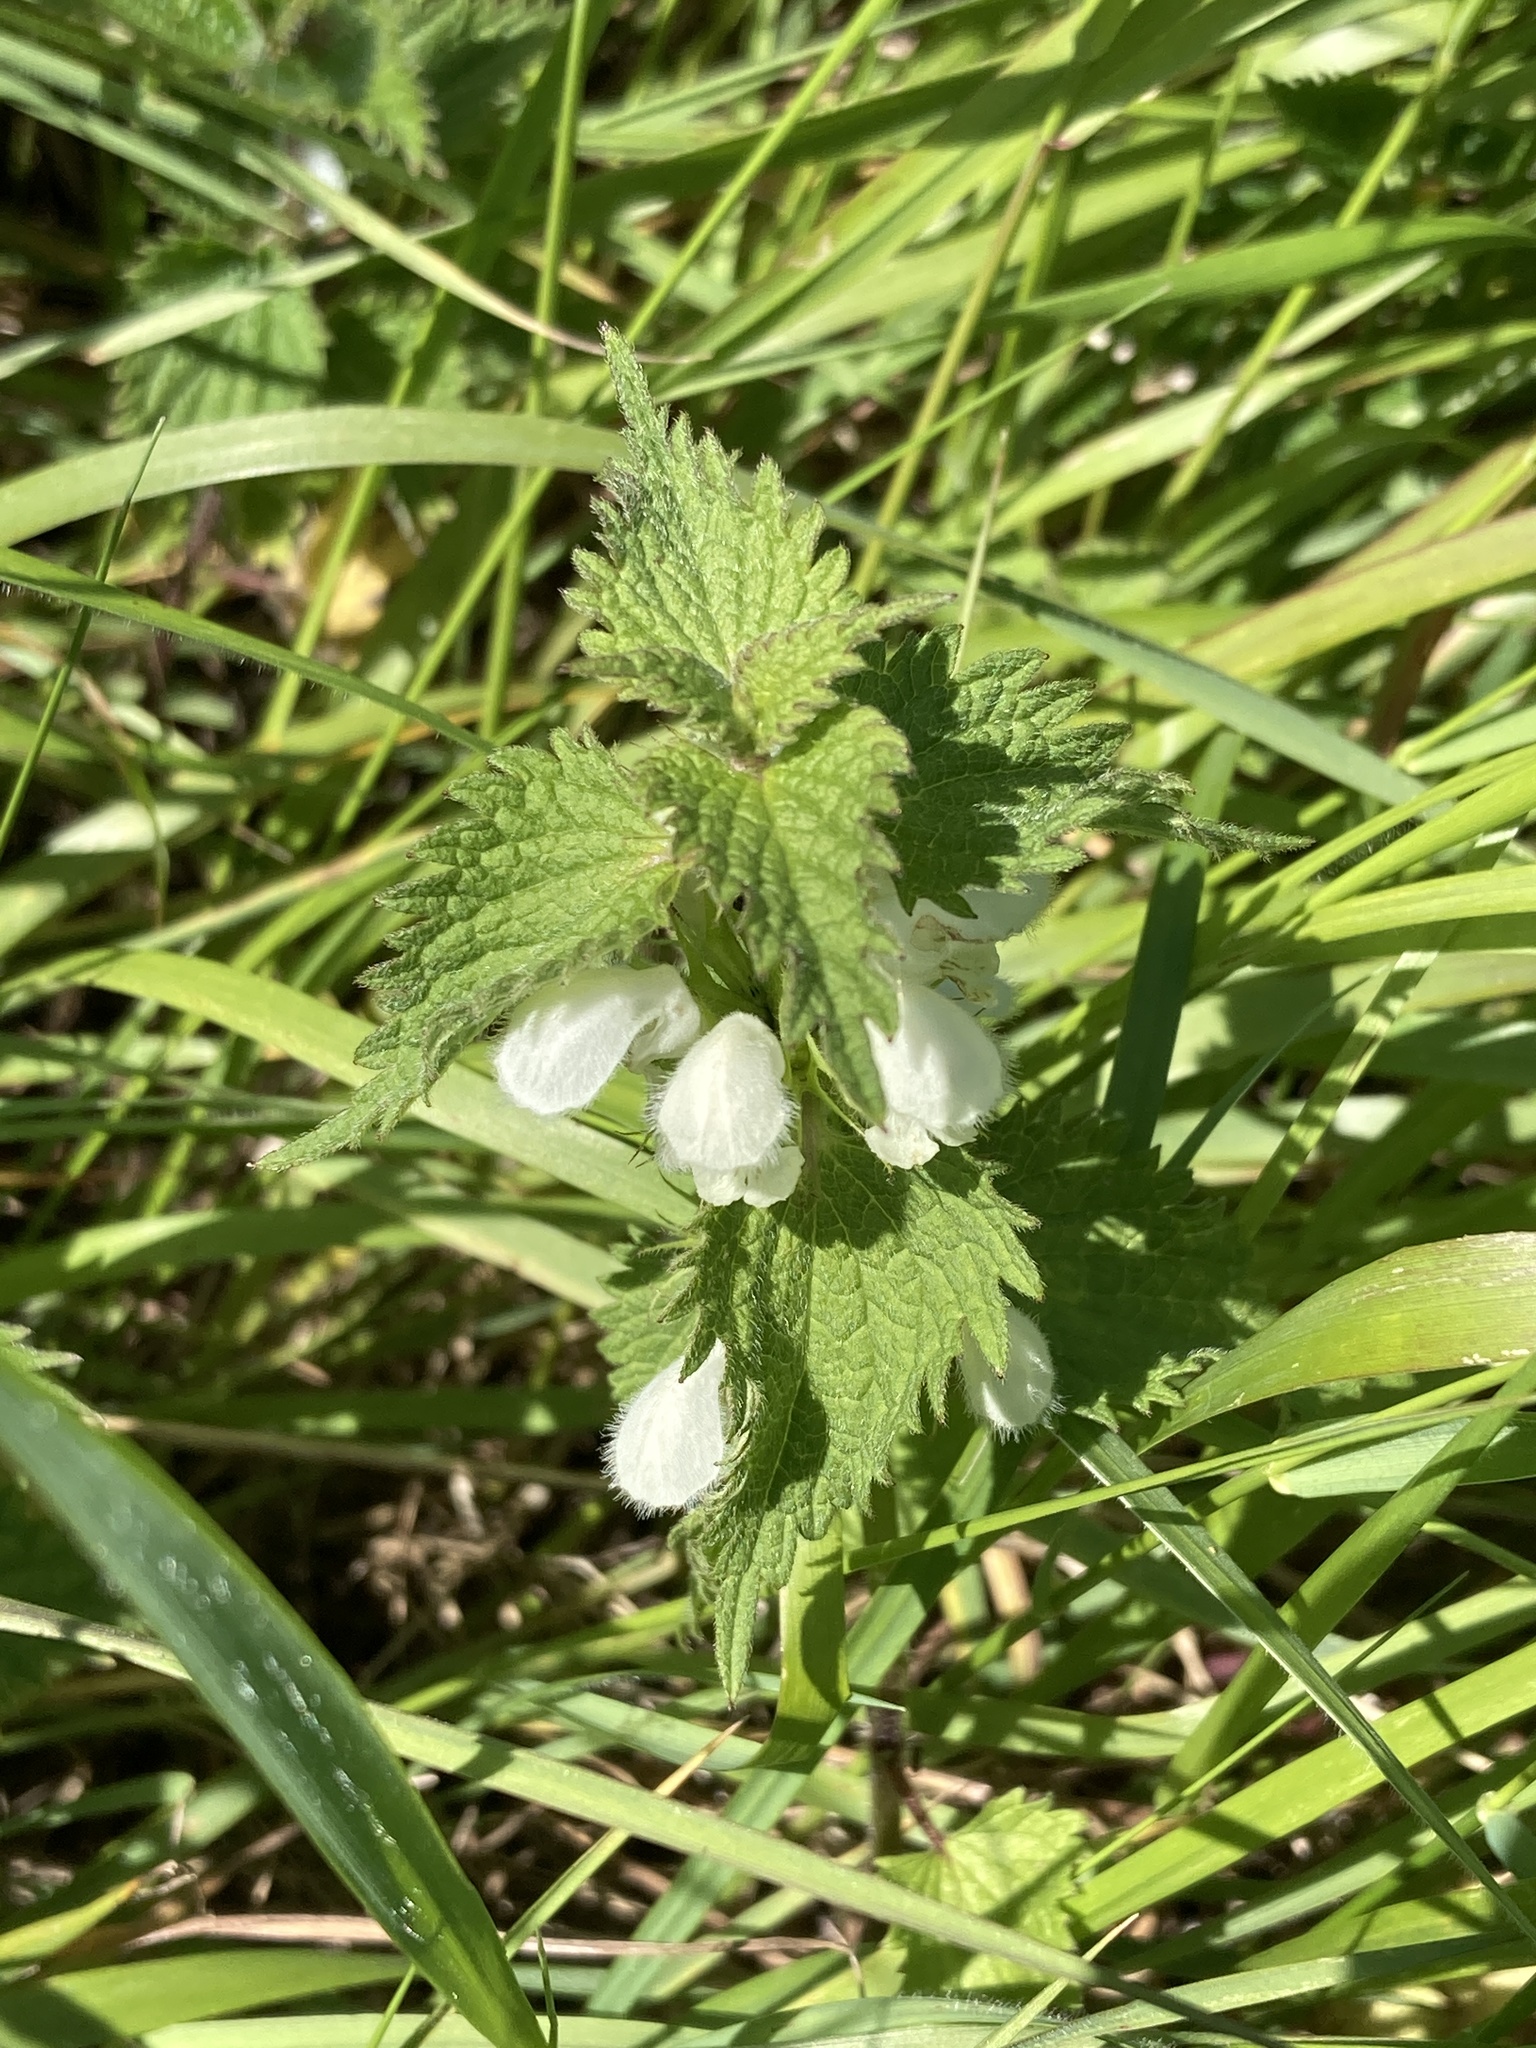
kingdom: Plantae
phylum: Tracheophyta
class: Magnoliopsida
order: Lamiales
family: Lamiaceae
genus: Lamium
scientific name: Lamium album
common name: White dead-nettle
